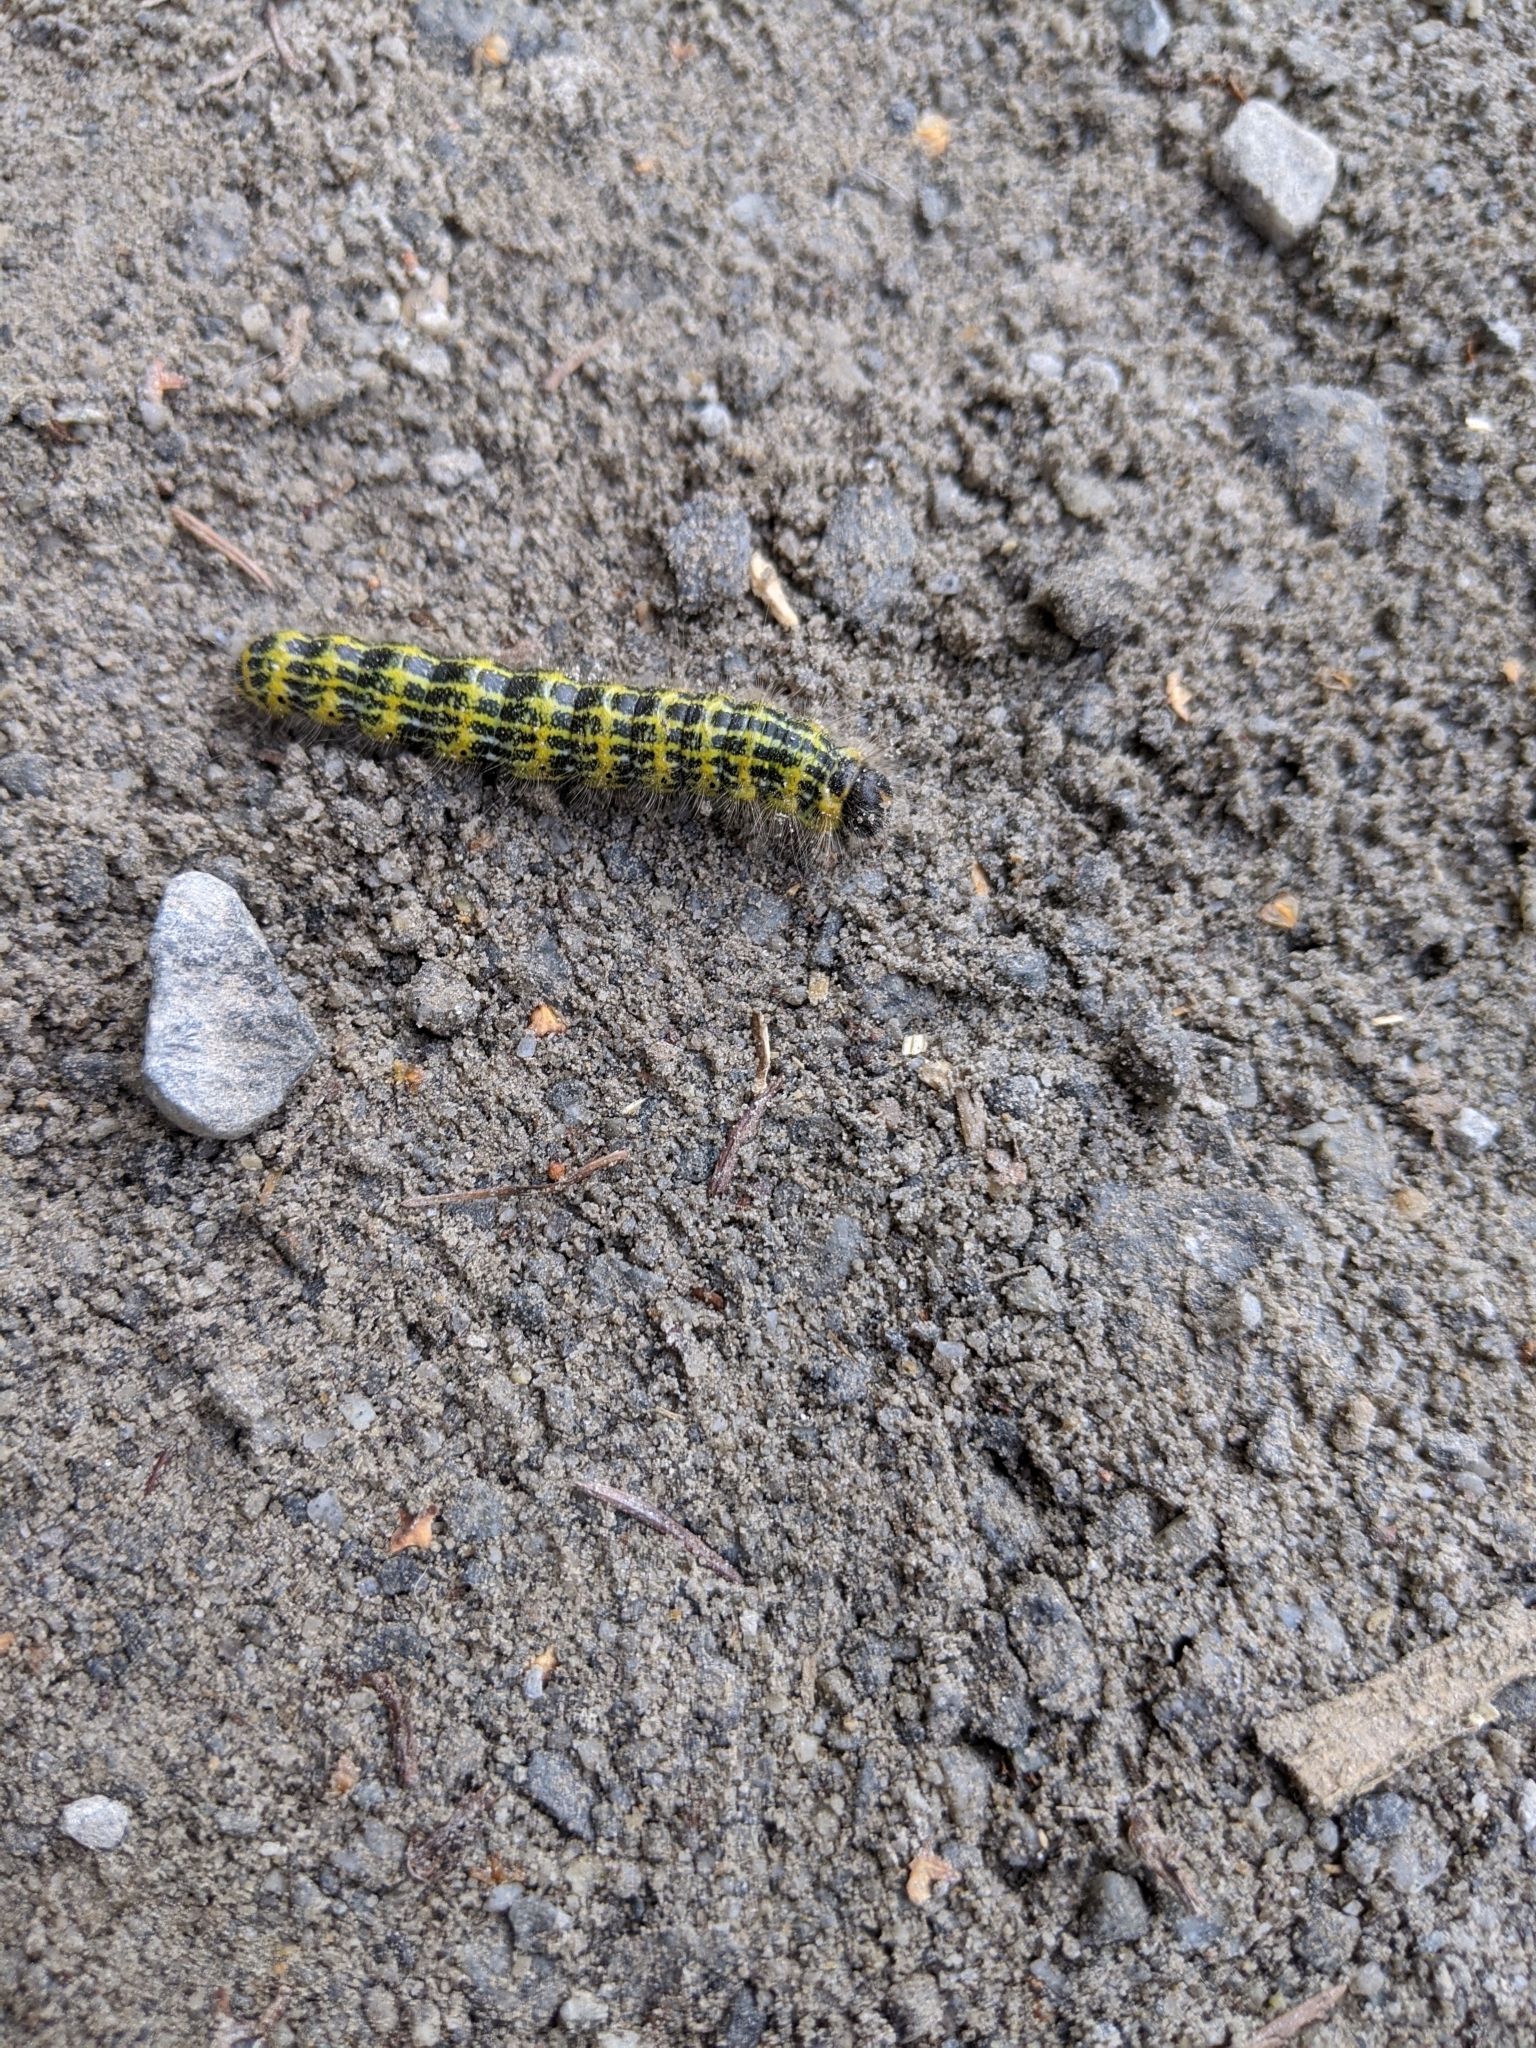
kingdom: Animalia
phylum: Arthropoda
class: Insecta
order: Lepidoptera
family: Notodontidae
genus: Phalera
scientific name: Phalera bucephala
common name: Buff-tip
